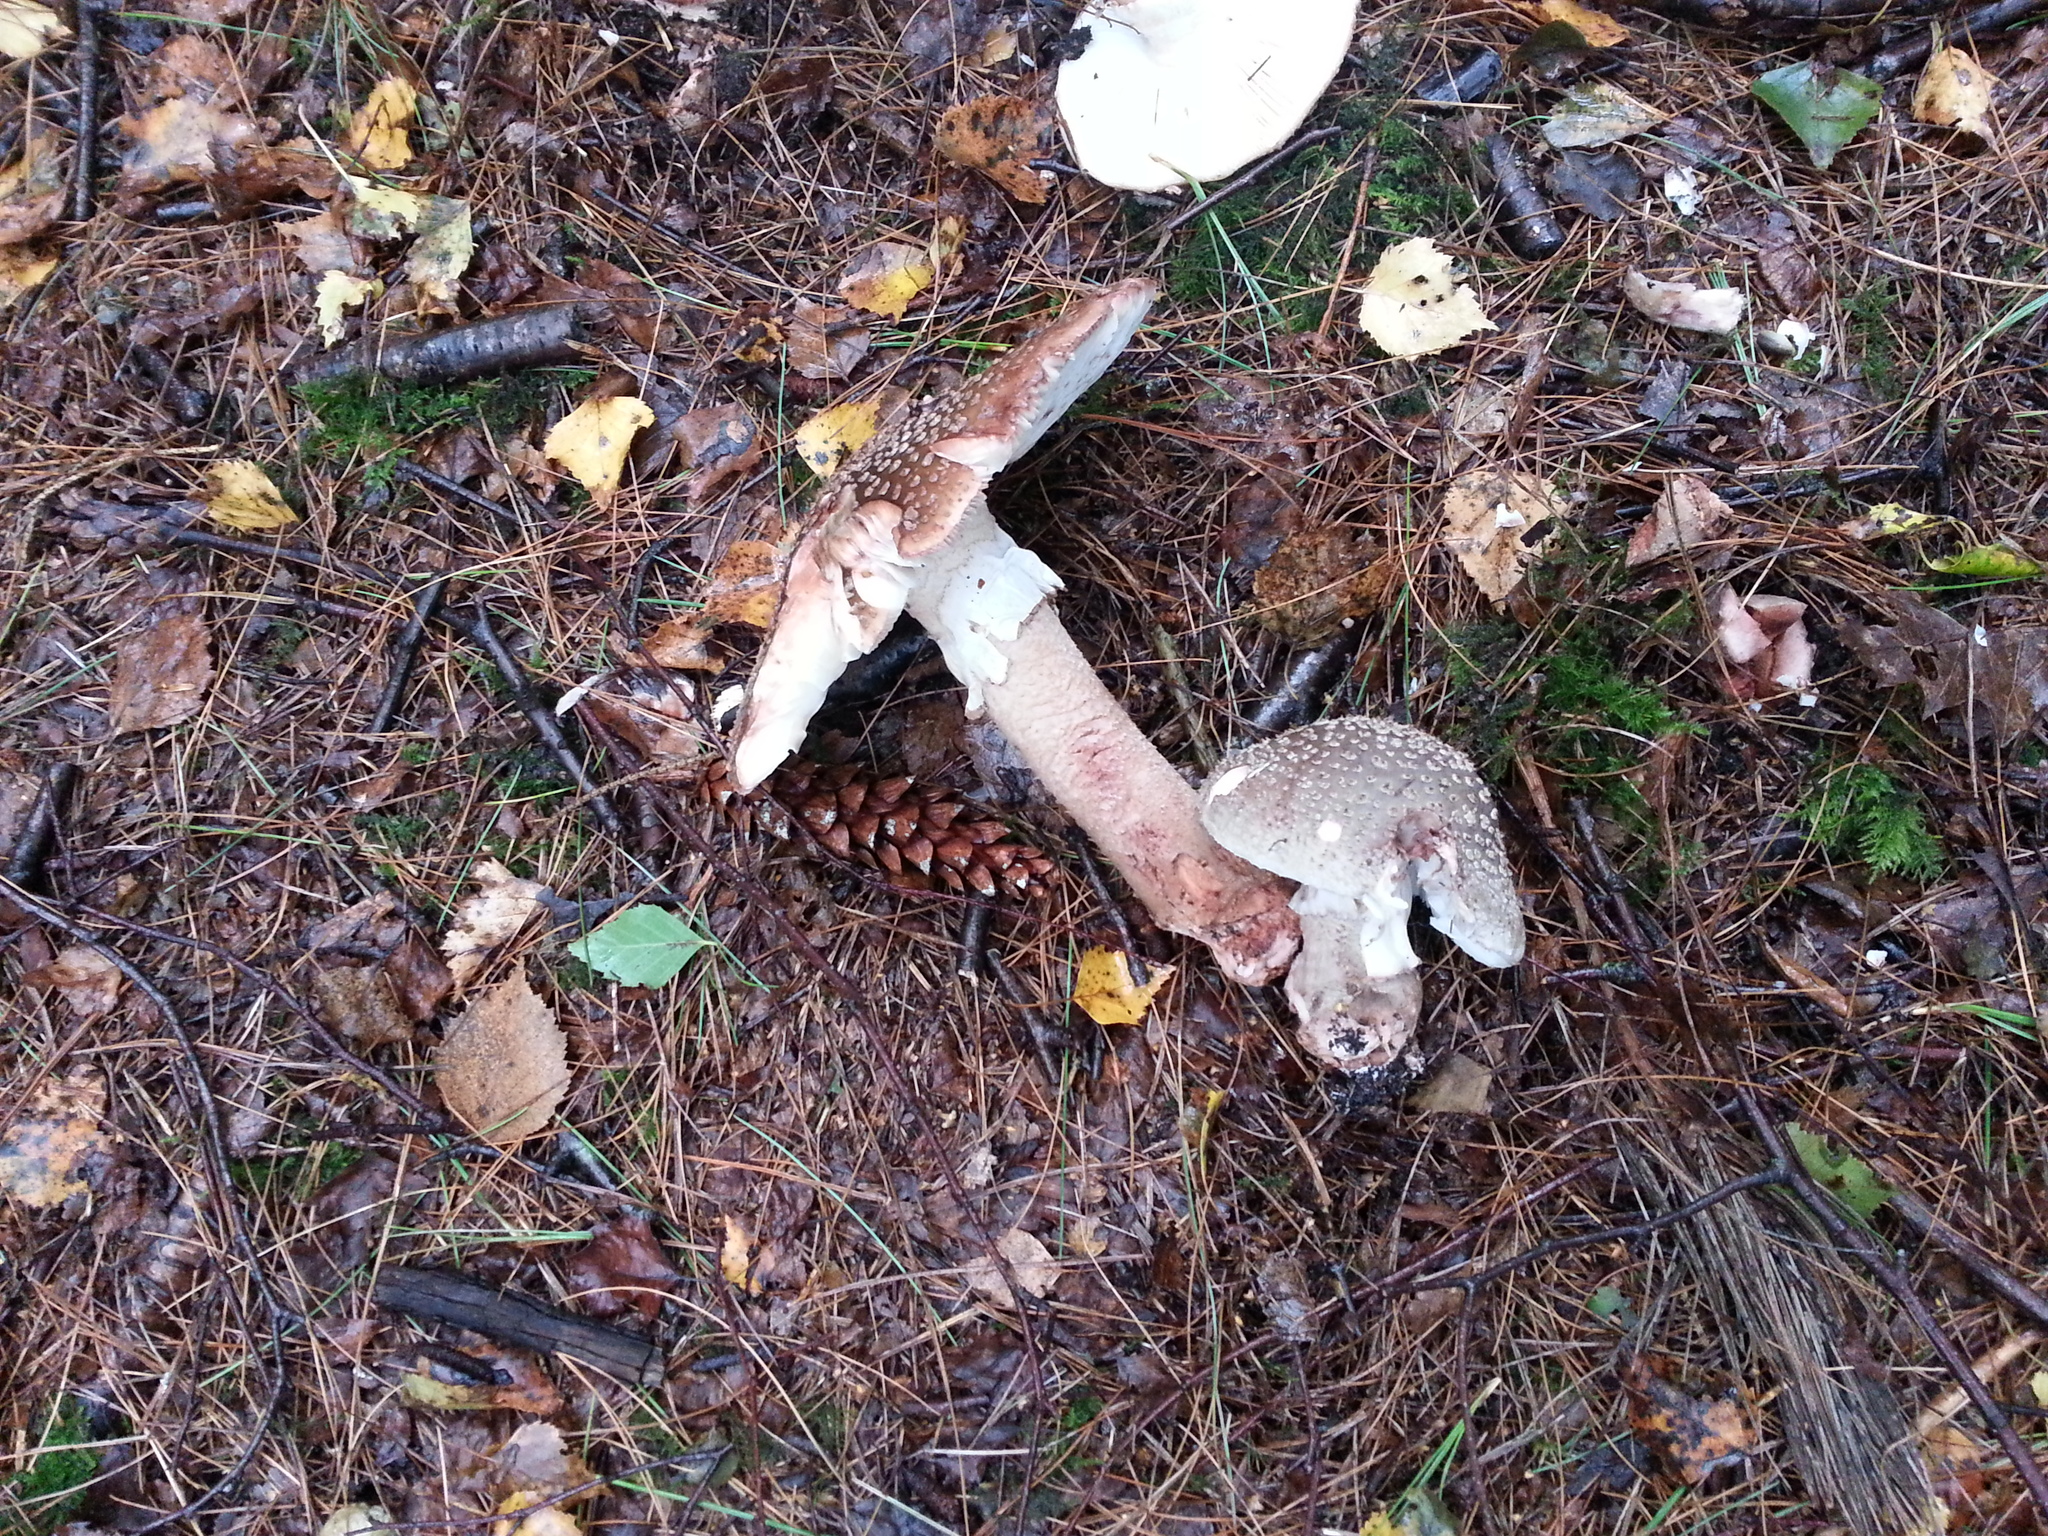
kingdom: Fungi
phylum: Basidiomycota
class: Agaricomycetes
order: Agaricales
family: Amanitaceae
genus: Amanita
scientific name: Amanita rubescens
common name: Blusher
